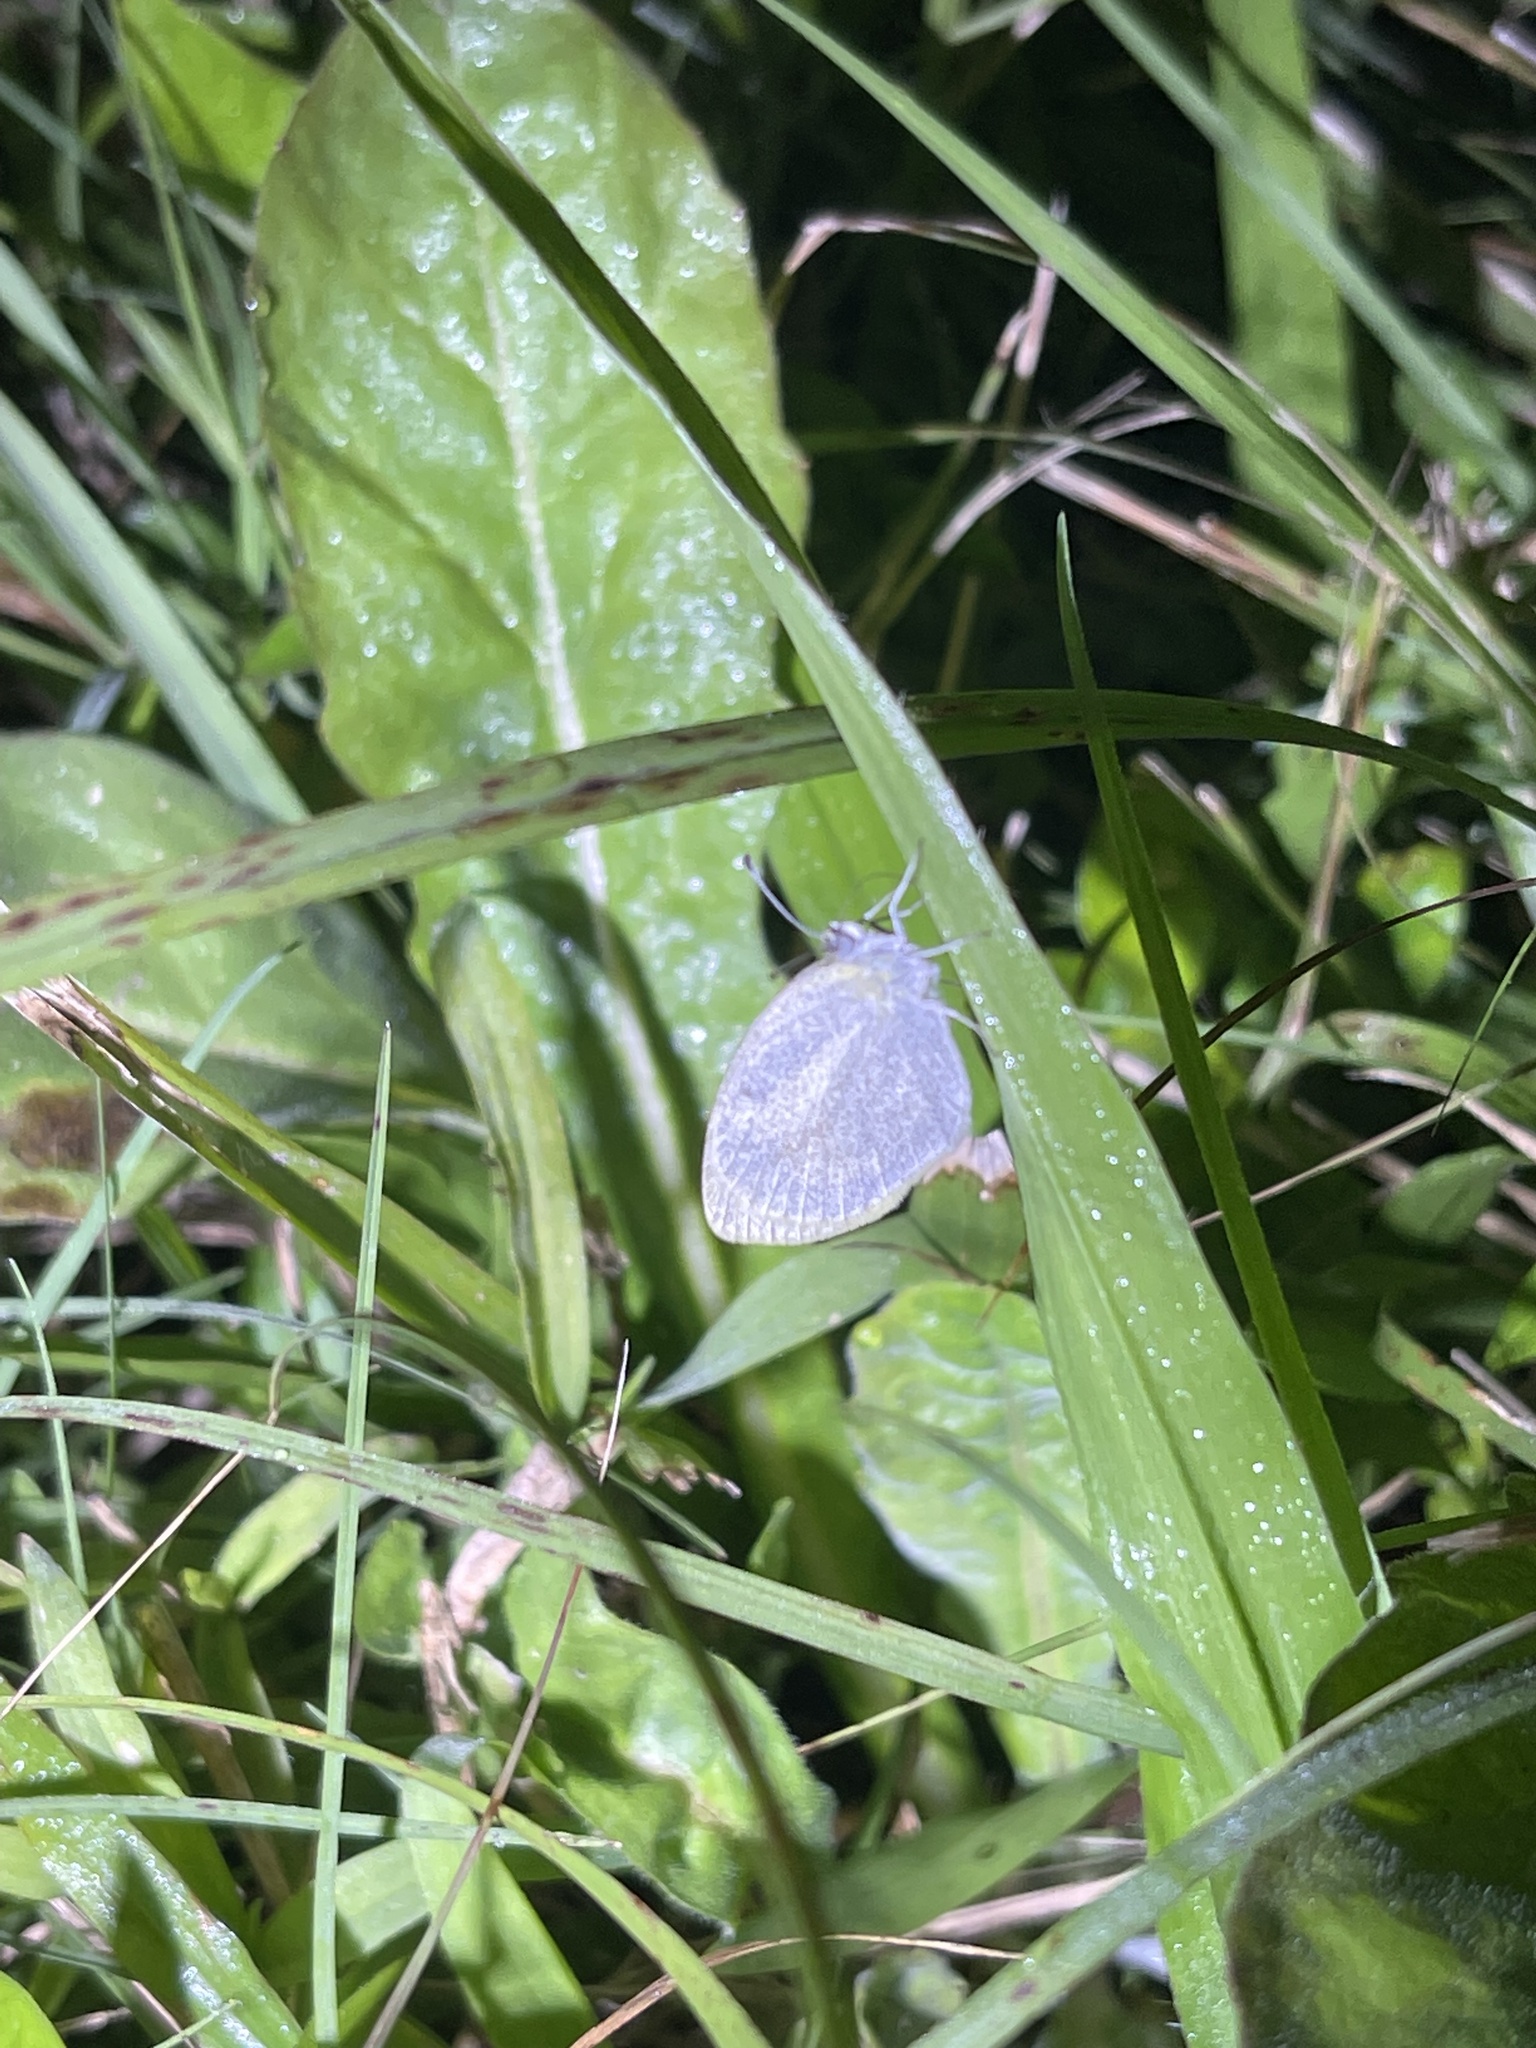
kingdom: Animalia
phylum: Arthropoda
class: Insecta
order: Lepidoptera
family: Pieridae
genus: Eurema
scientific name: Eurema daira
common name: Barred sulphur
